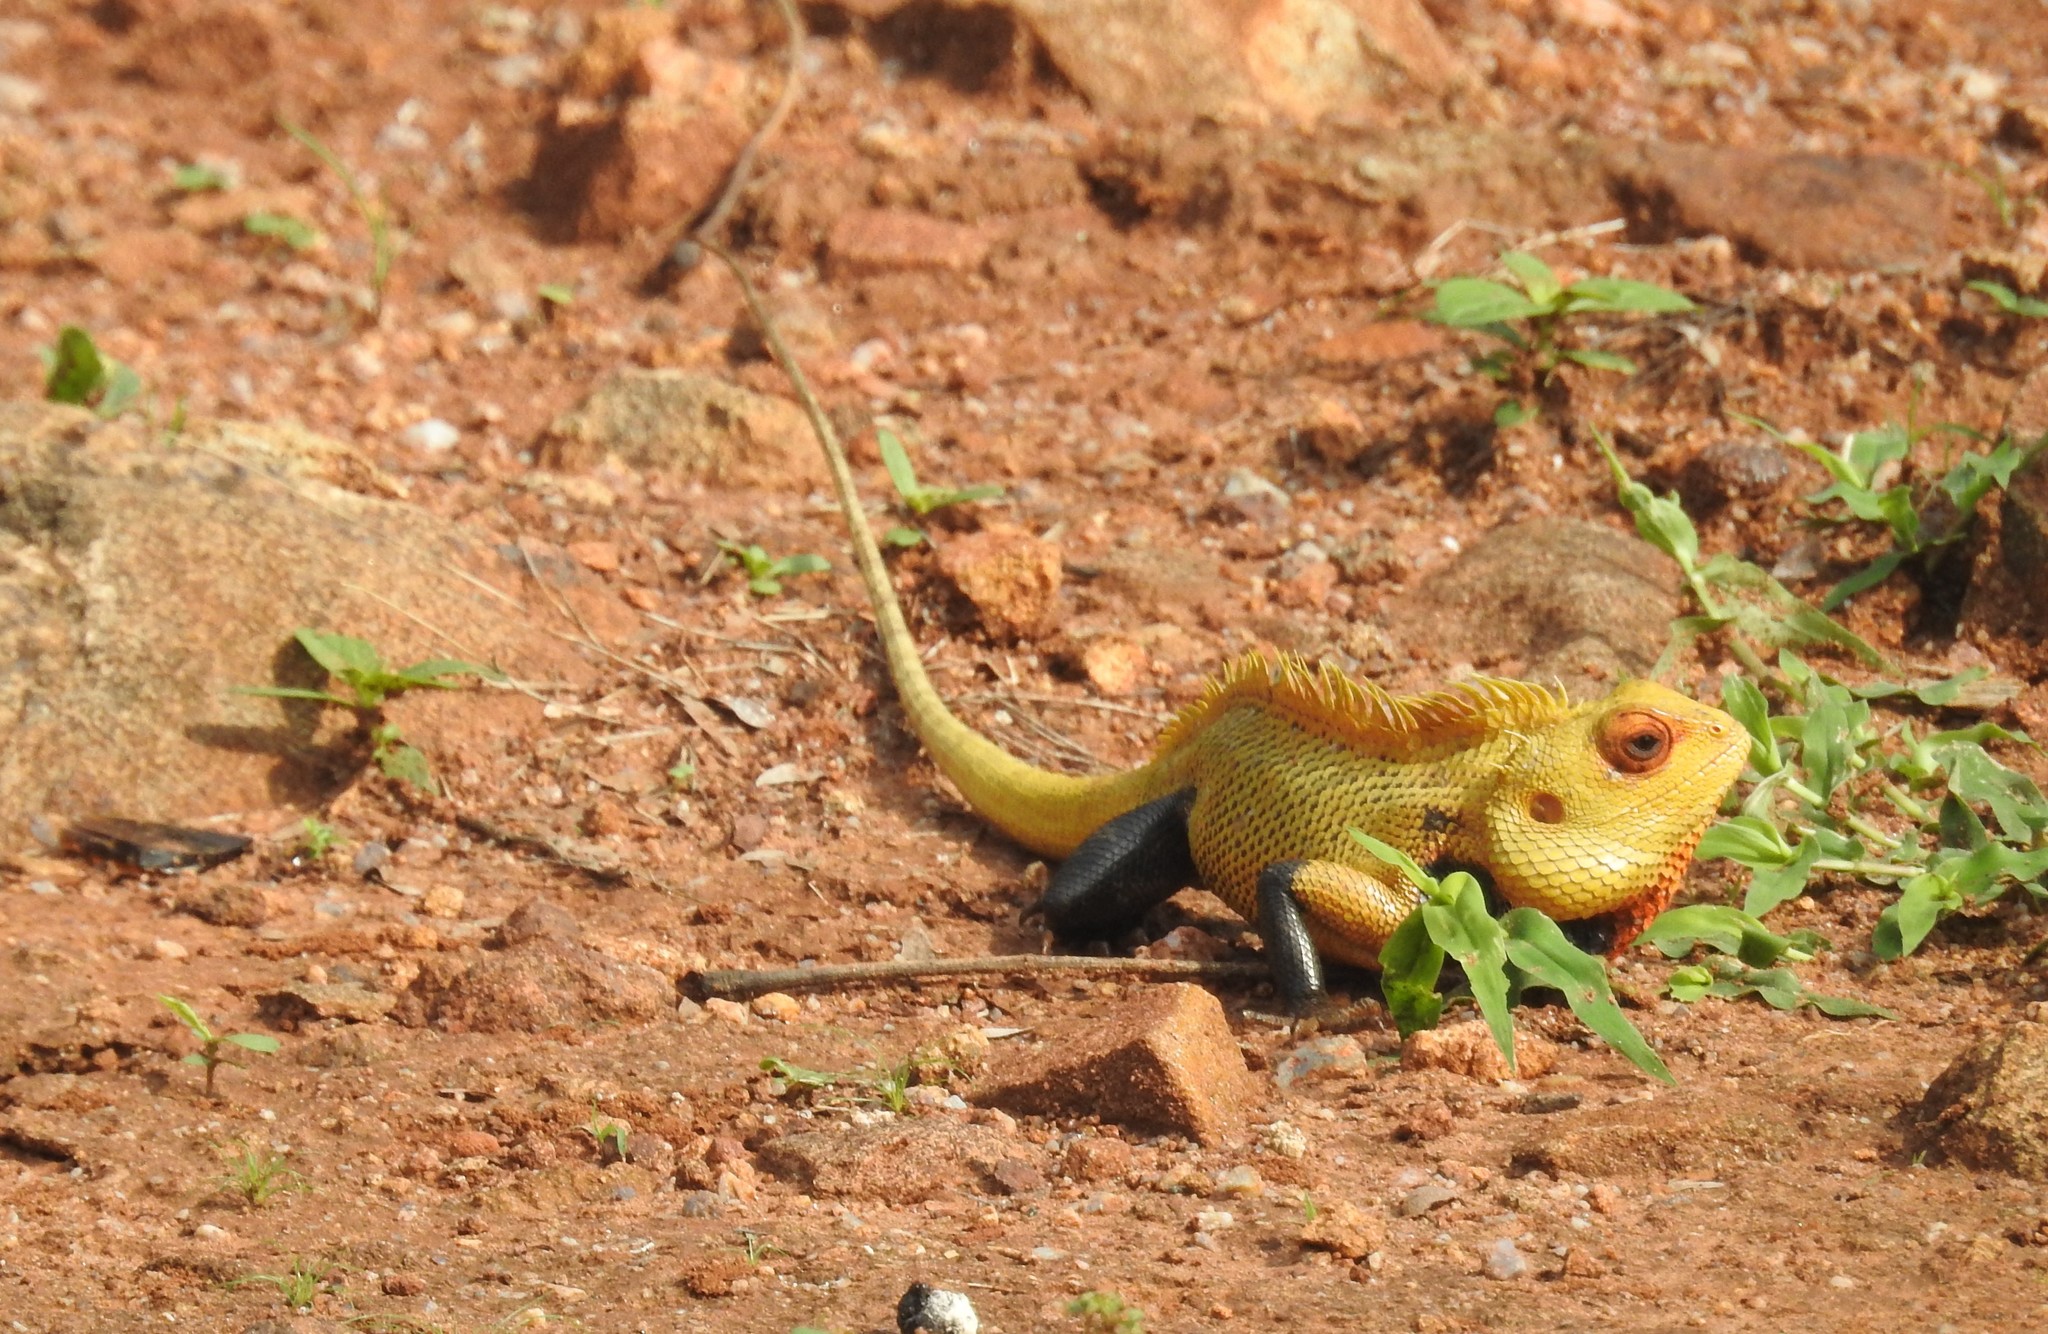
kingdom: Animalia
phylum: Chordata
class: Squamata
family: Agamidae
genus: Calotes
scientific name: Calotes versicolor
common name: Oriental garden lizard
